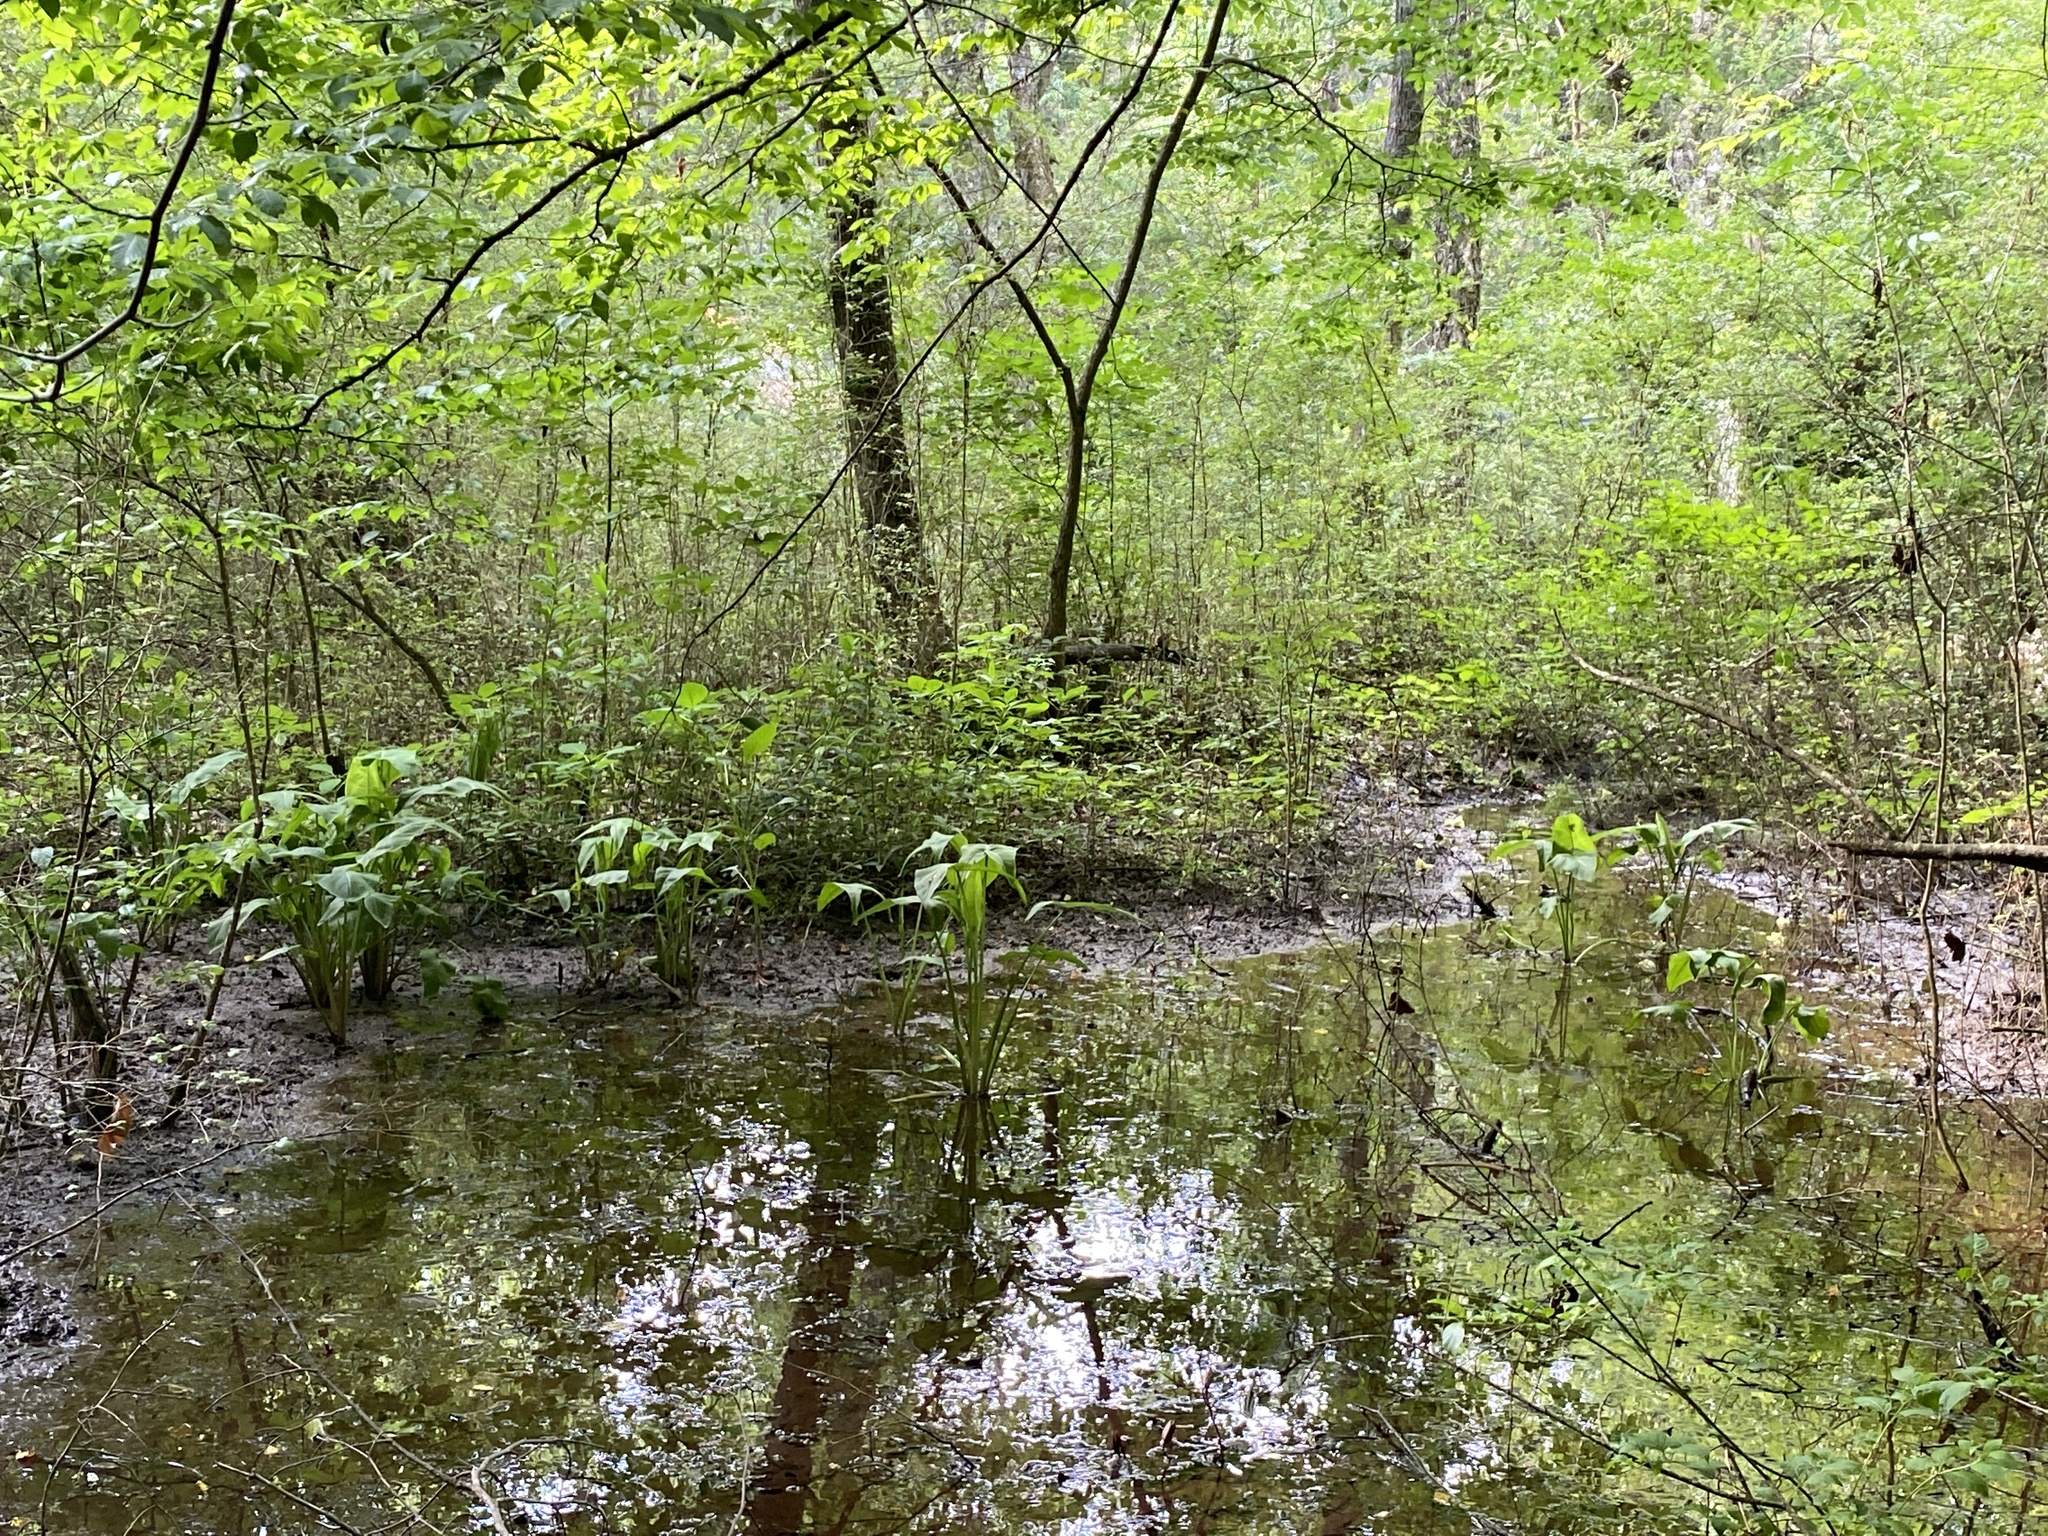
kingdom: Plantae
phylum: Tracheophyta
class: Liliopsida
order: Alismatales
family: Araceae
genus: Peltandra
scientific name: Peltandra virginica
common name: Arrow arum
